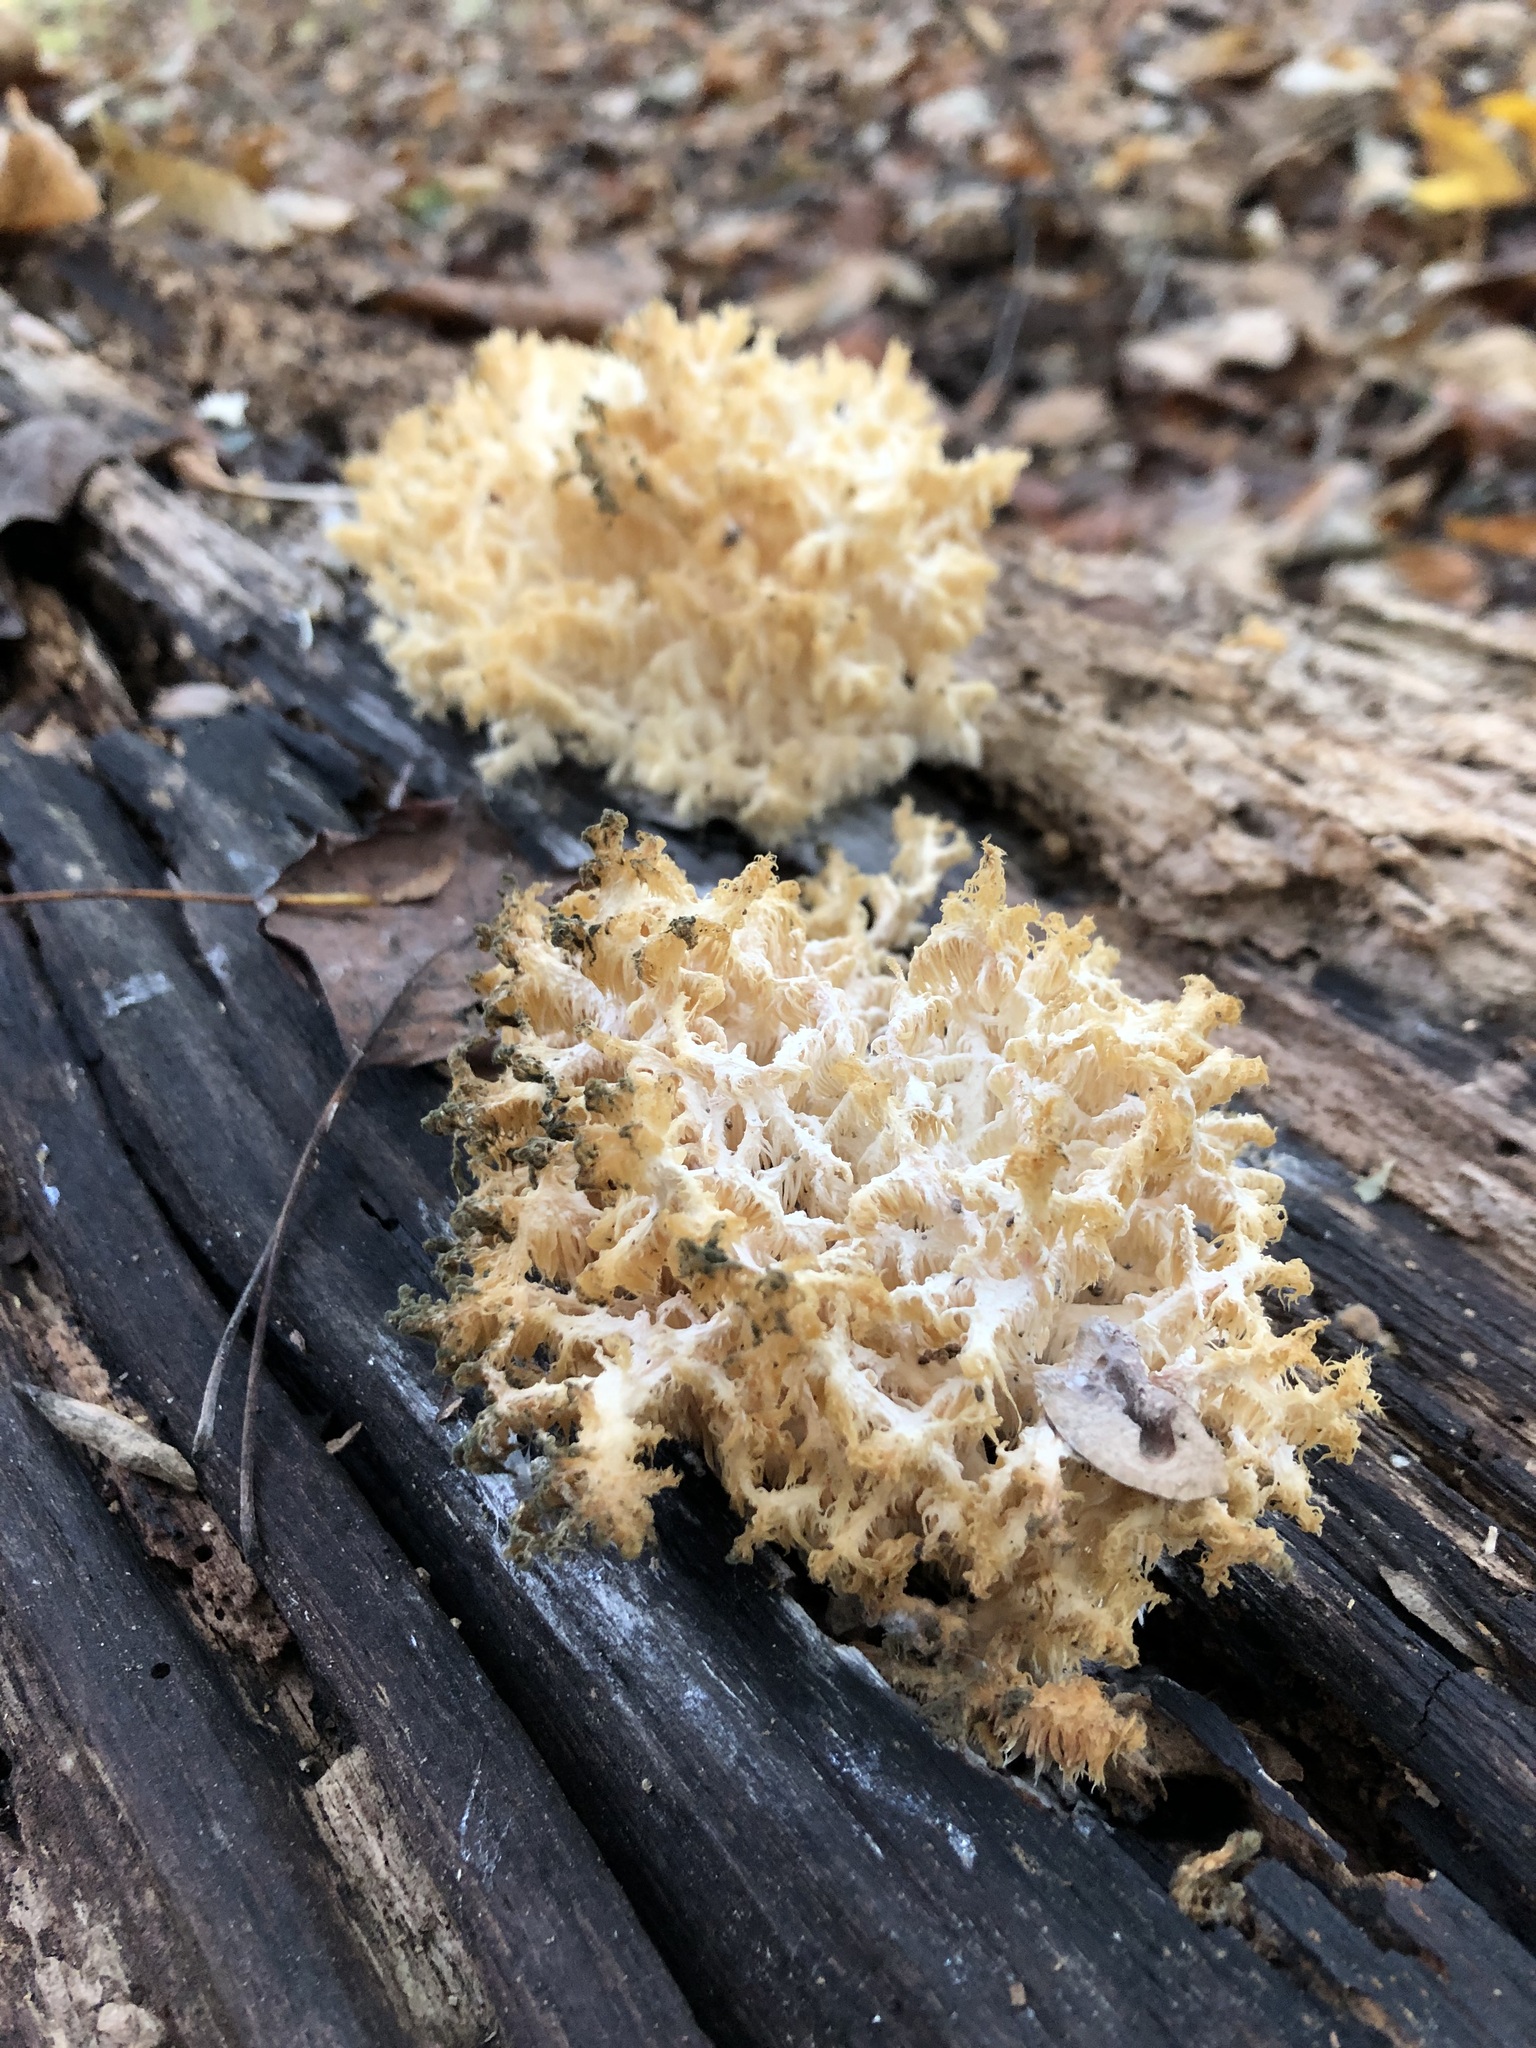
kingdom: Fungi
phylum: Basidiomycota
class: Agaricomycetes
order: Russulales
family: Hericiaceae
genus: Hericium
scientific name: Hericium coralloides
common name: Coral tooth
